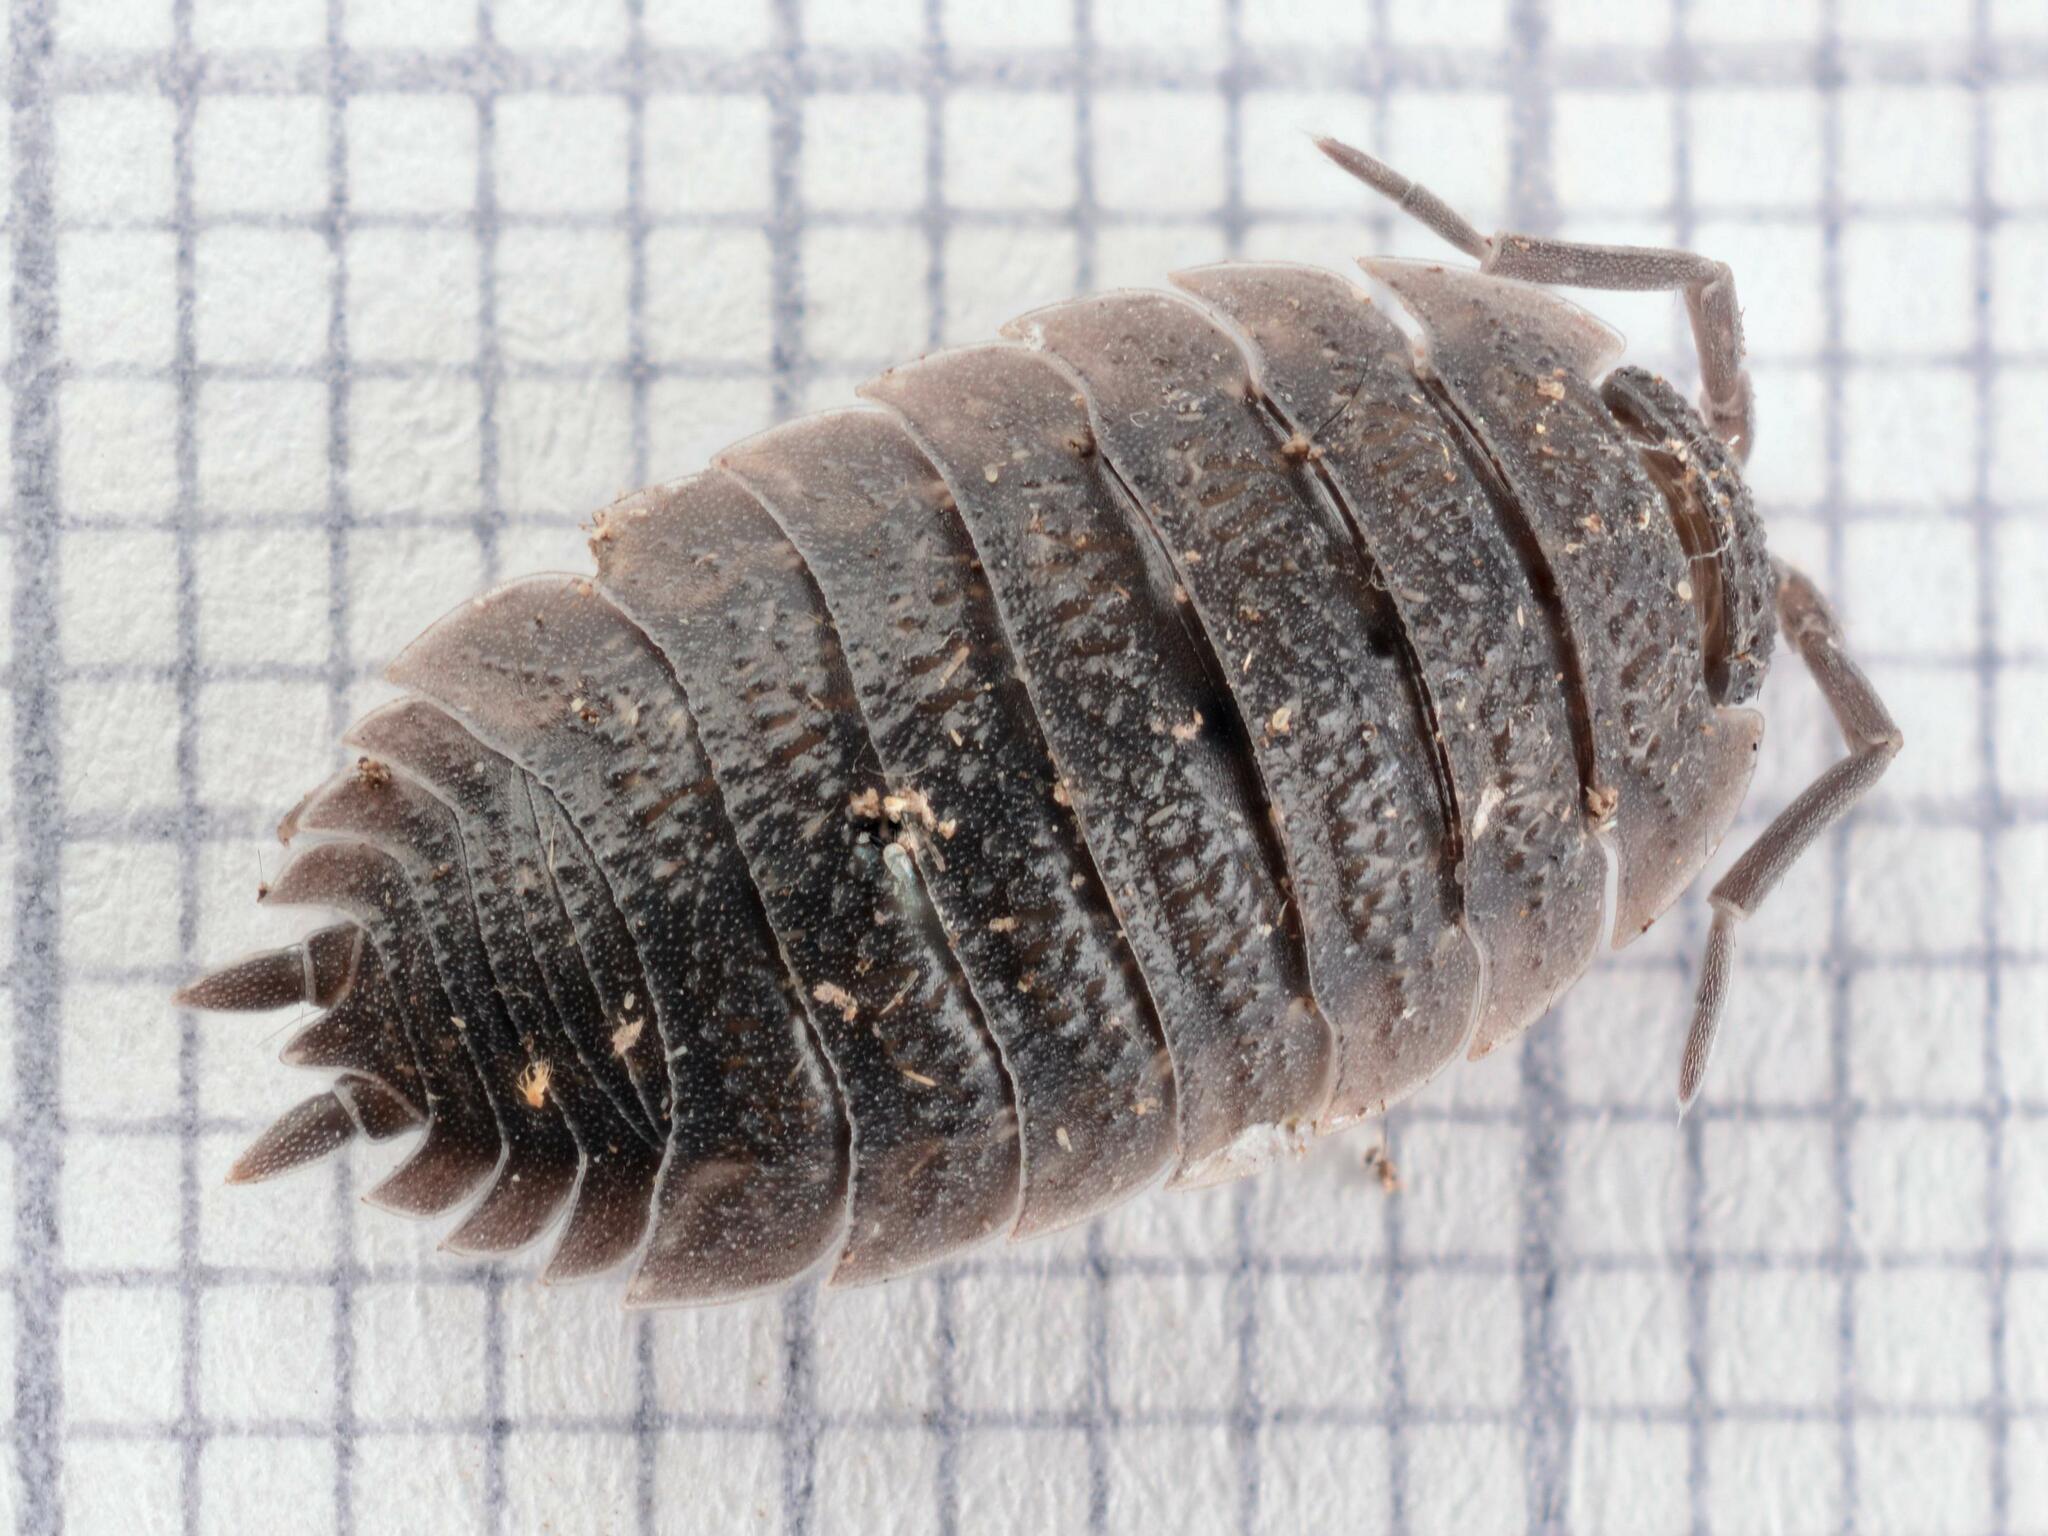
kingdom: Animalia
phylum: Arthropoda
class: Malacostraca
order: Isopoda
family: Porcellionidae
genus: Porcellio
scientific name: Porcellio scaber
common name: Common rough woodlouse
